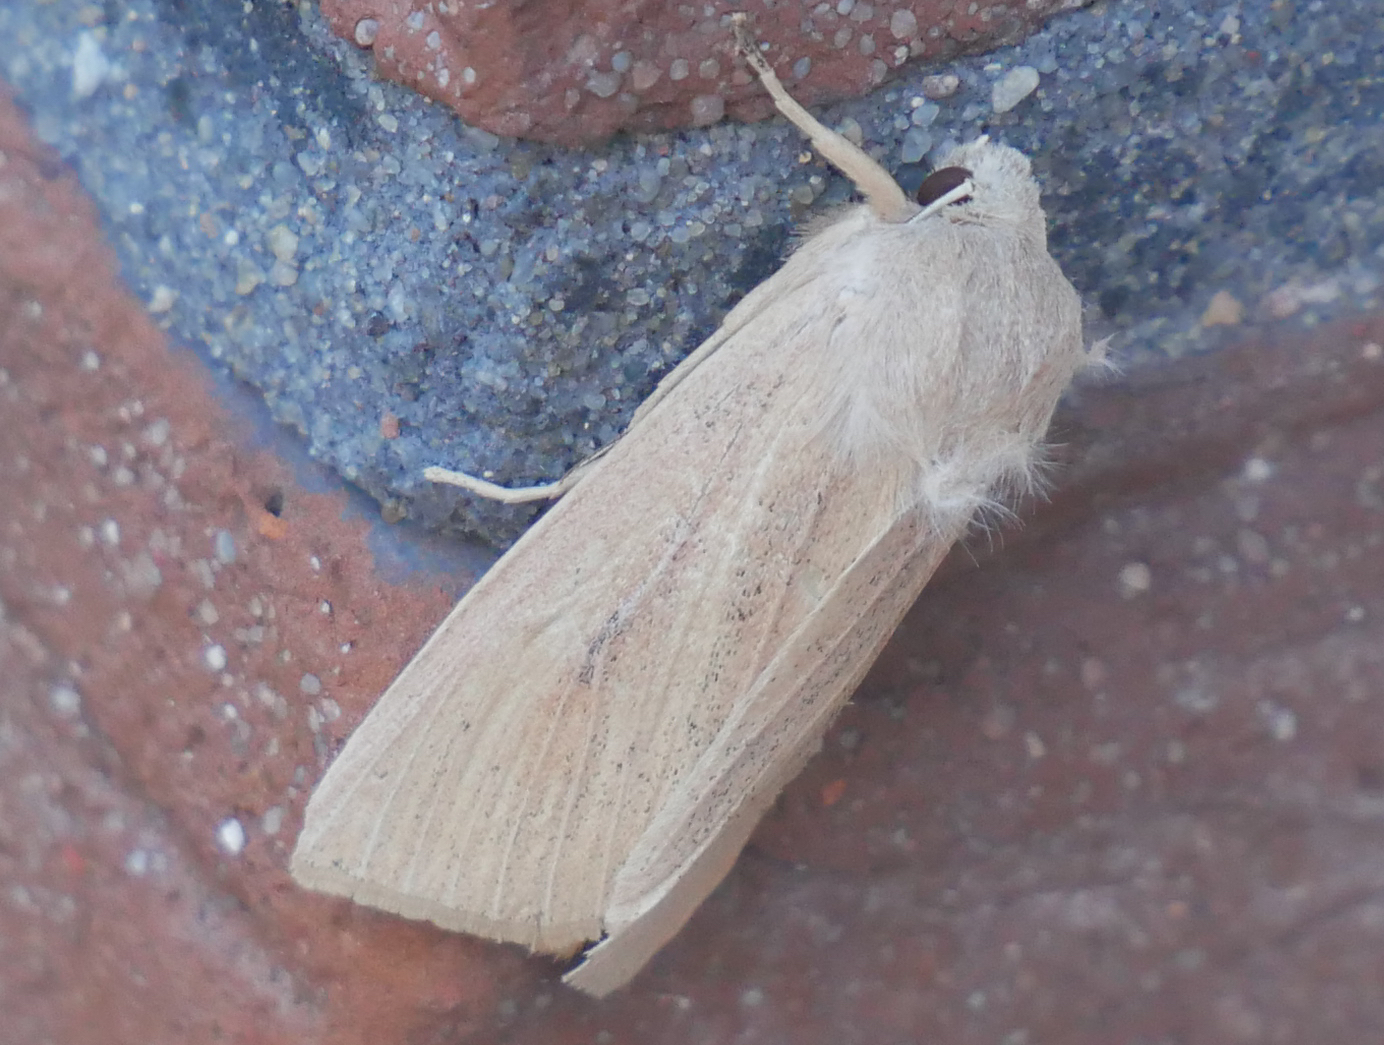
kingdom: Animalia
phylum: Arthropoda
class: Insecta
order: Lepidoptera
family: Noctuidae
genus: Rhizedra
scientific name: Rhizedra lutosa
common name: Large wainscot
